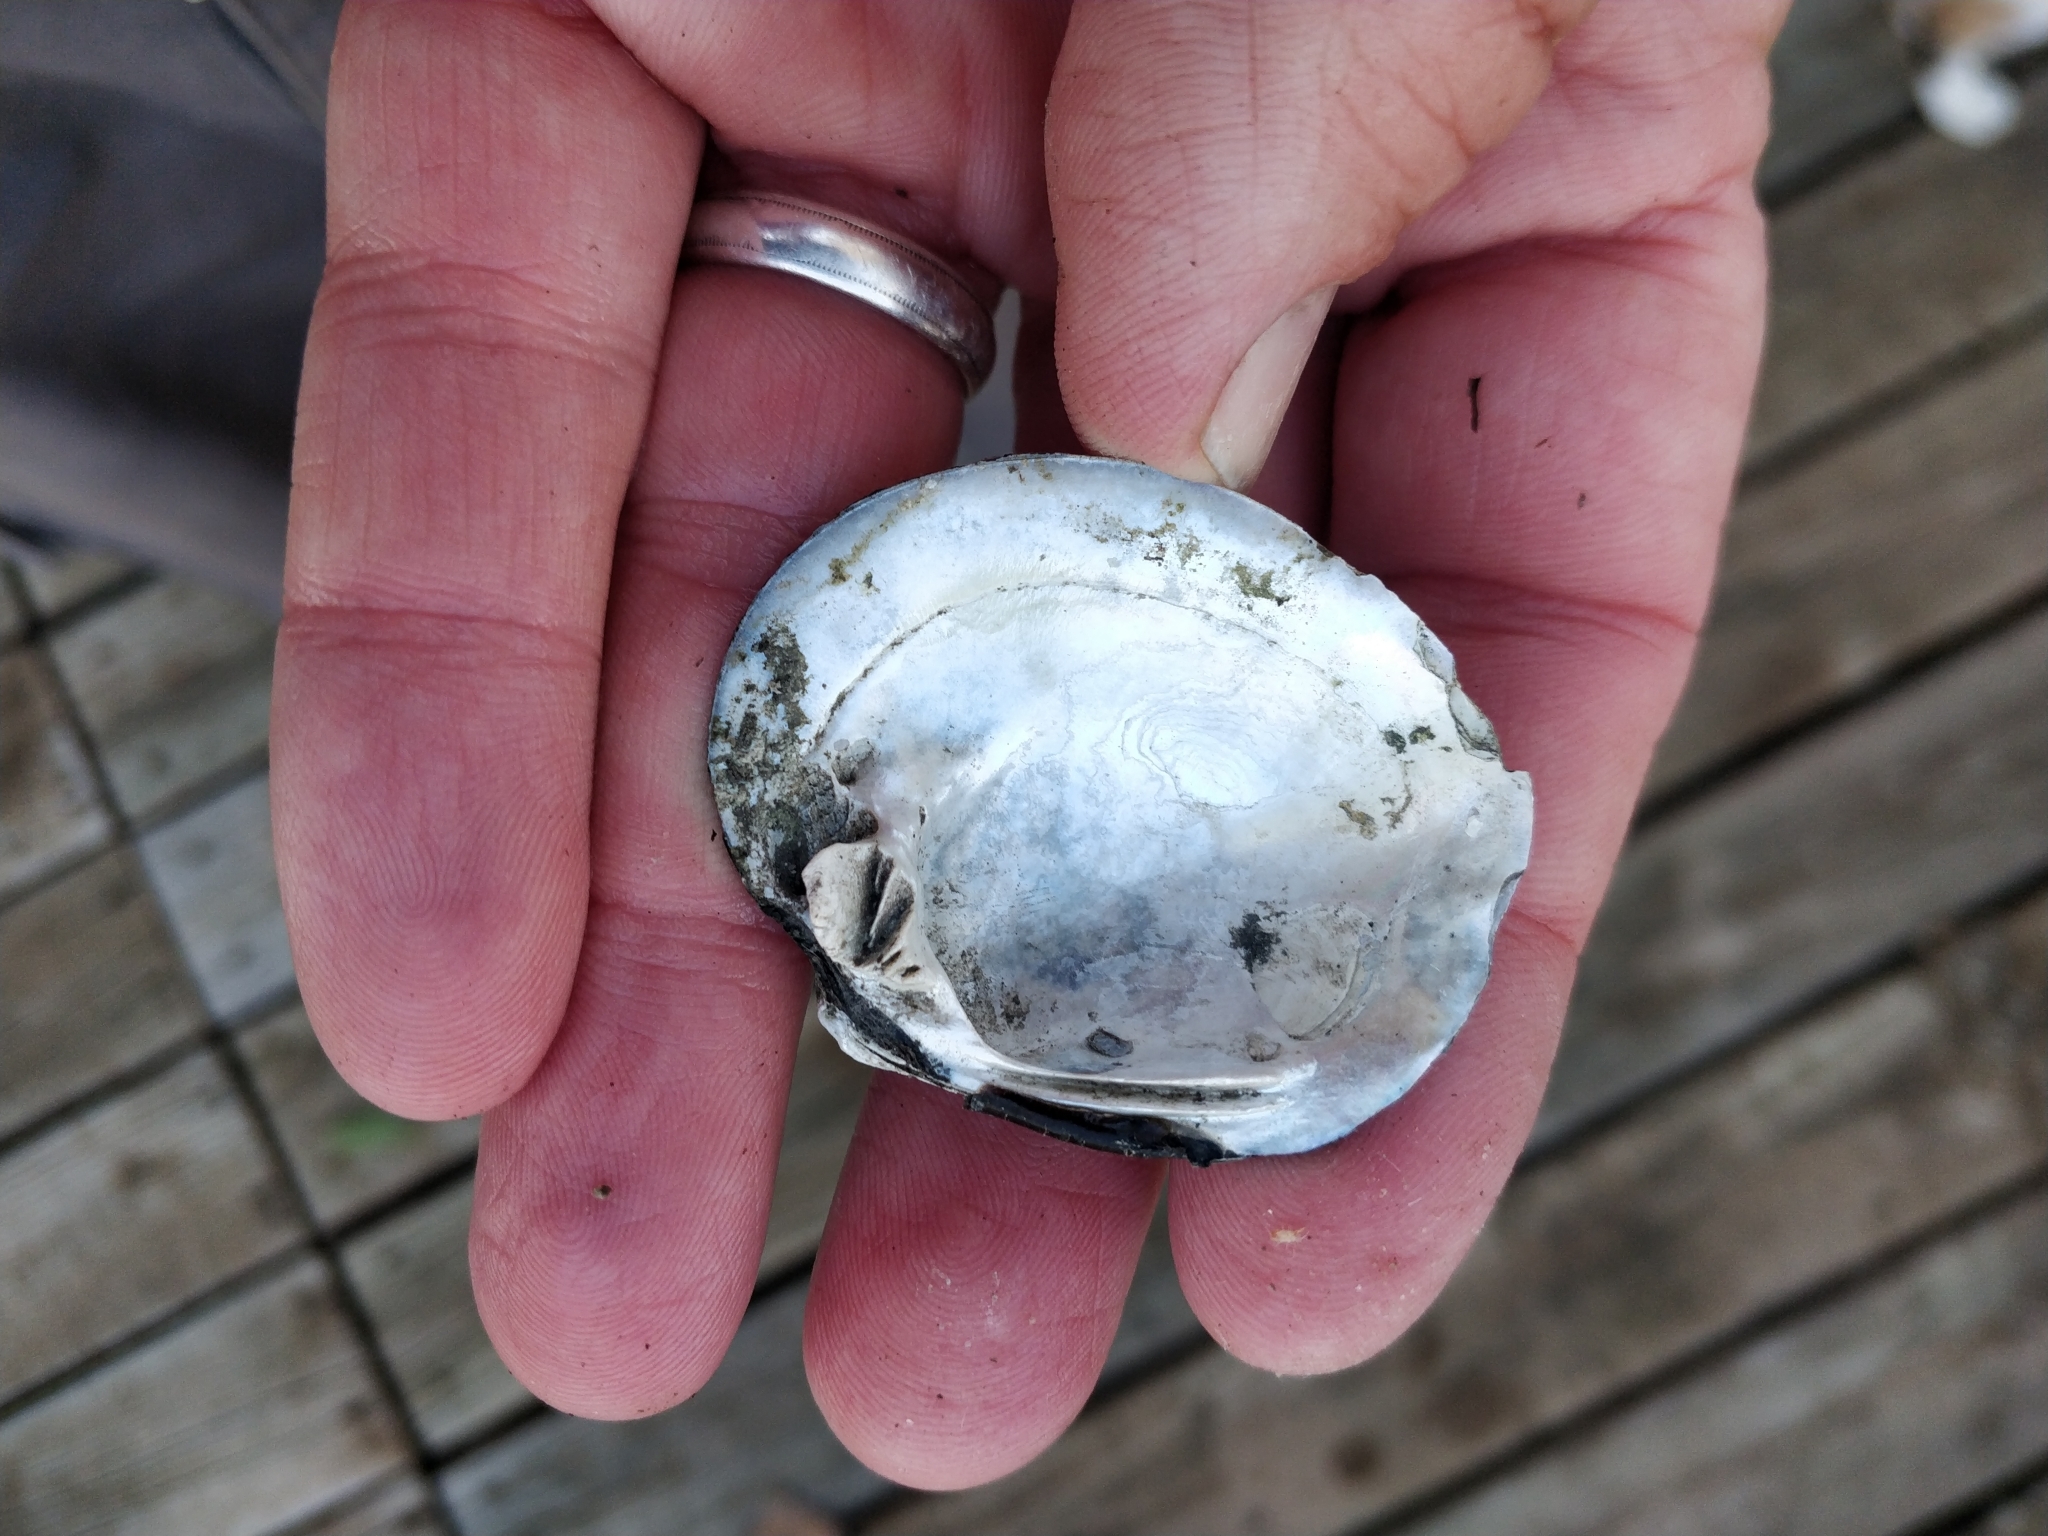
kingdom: Animalia
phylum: Mollusca
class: Bivalvia
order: Unionida
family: Unionidae
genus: Cyclonaias
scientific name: Cyclonaias pustulosa
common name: Pimpleback
